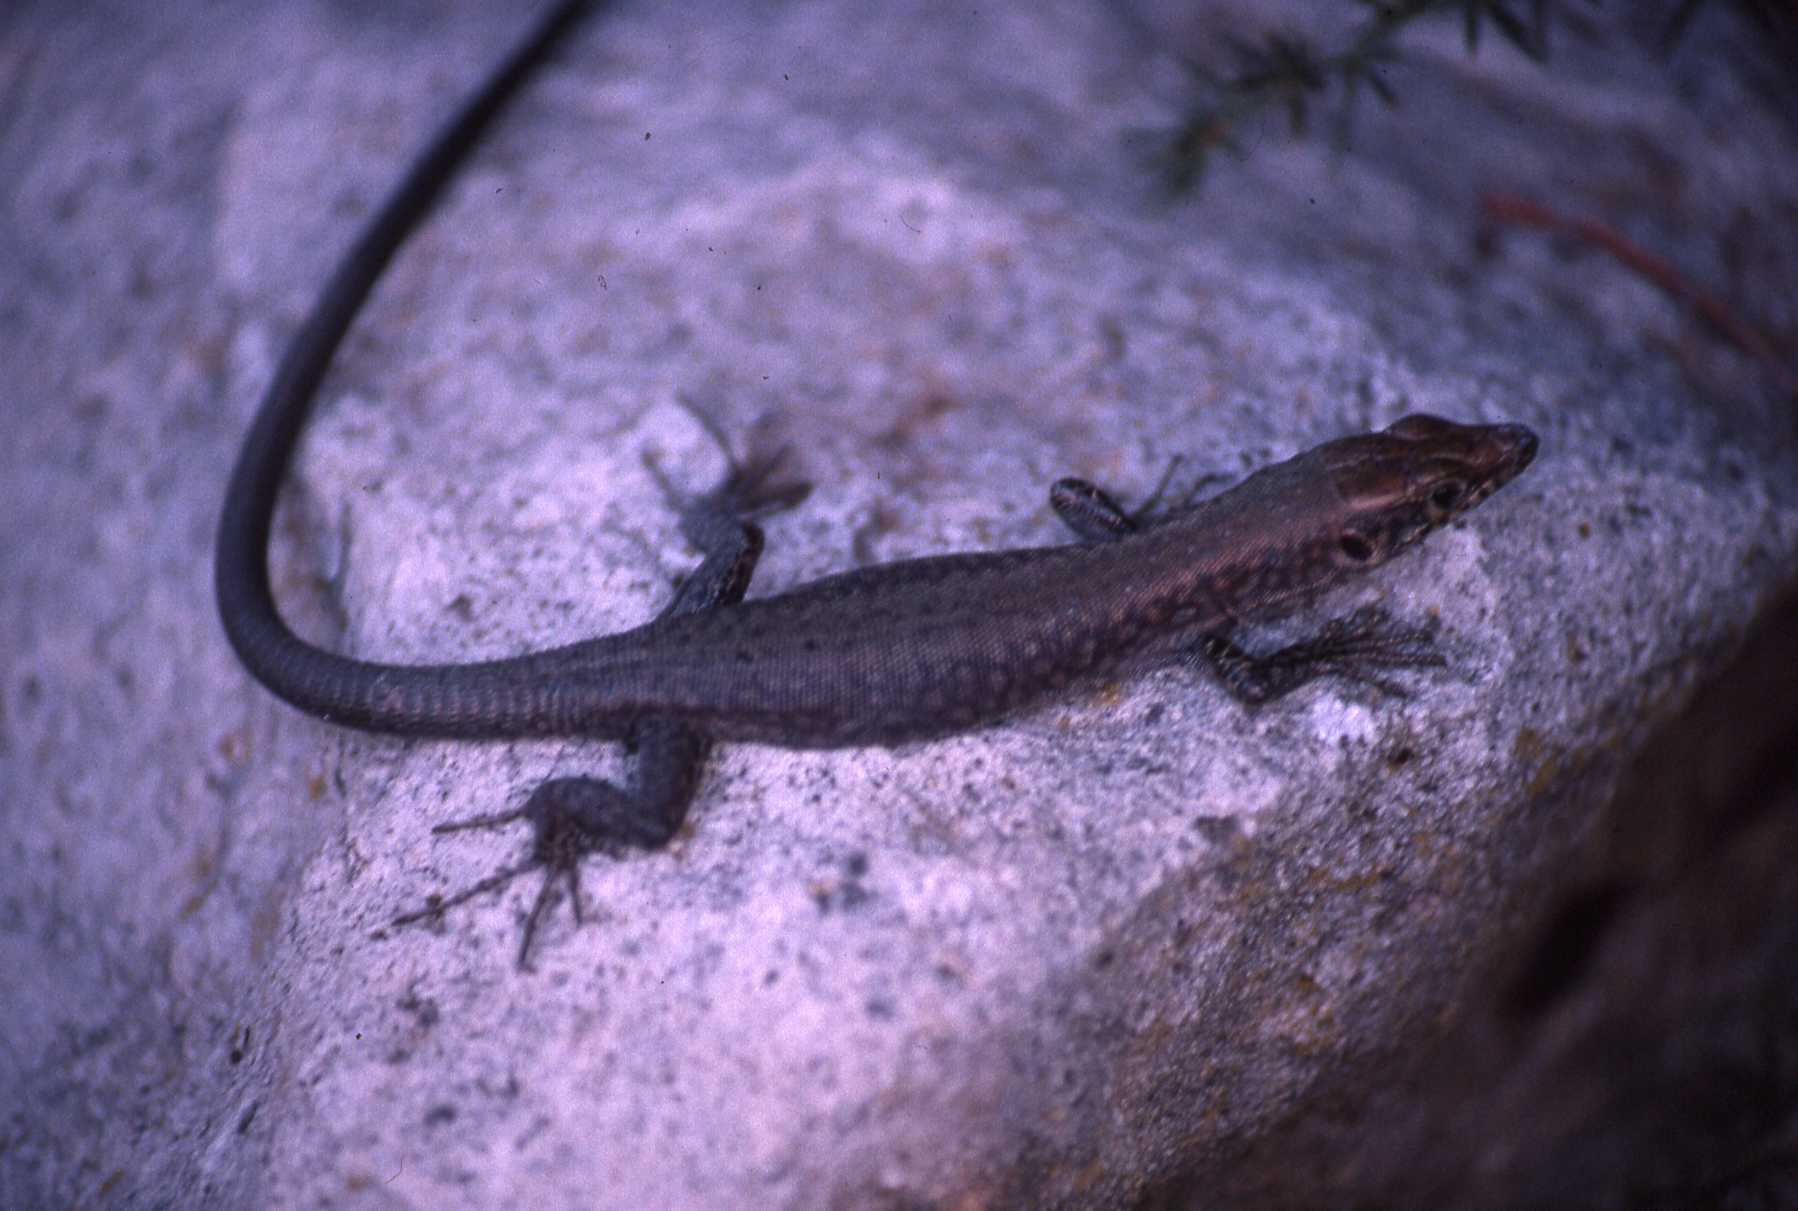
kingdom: Animalia
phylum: Chordata
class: Squamata
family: Lacertidae
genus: Hellenolacerta
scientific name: Hellenolacerta graeca
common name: Greek rock lizard
